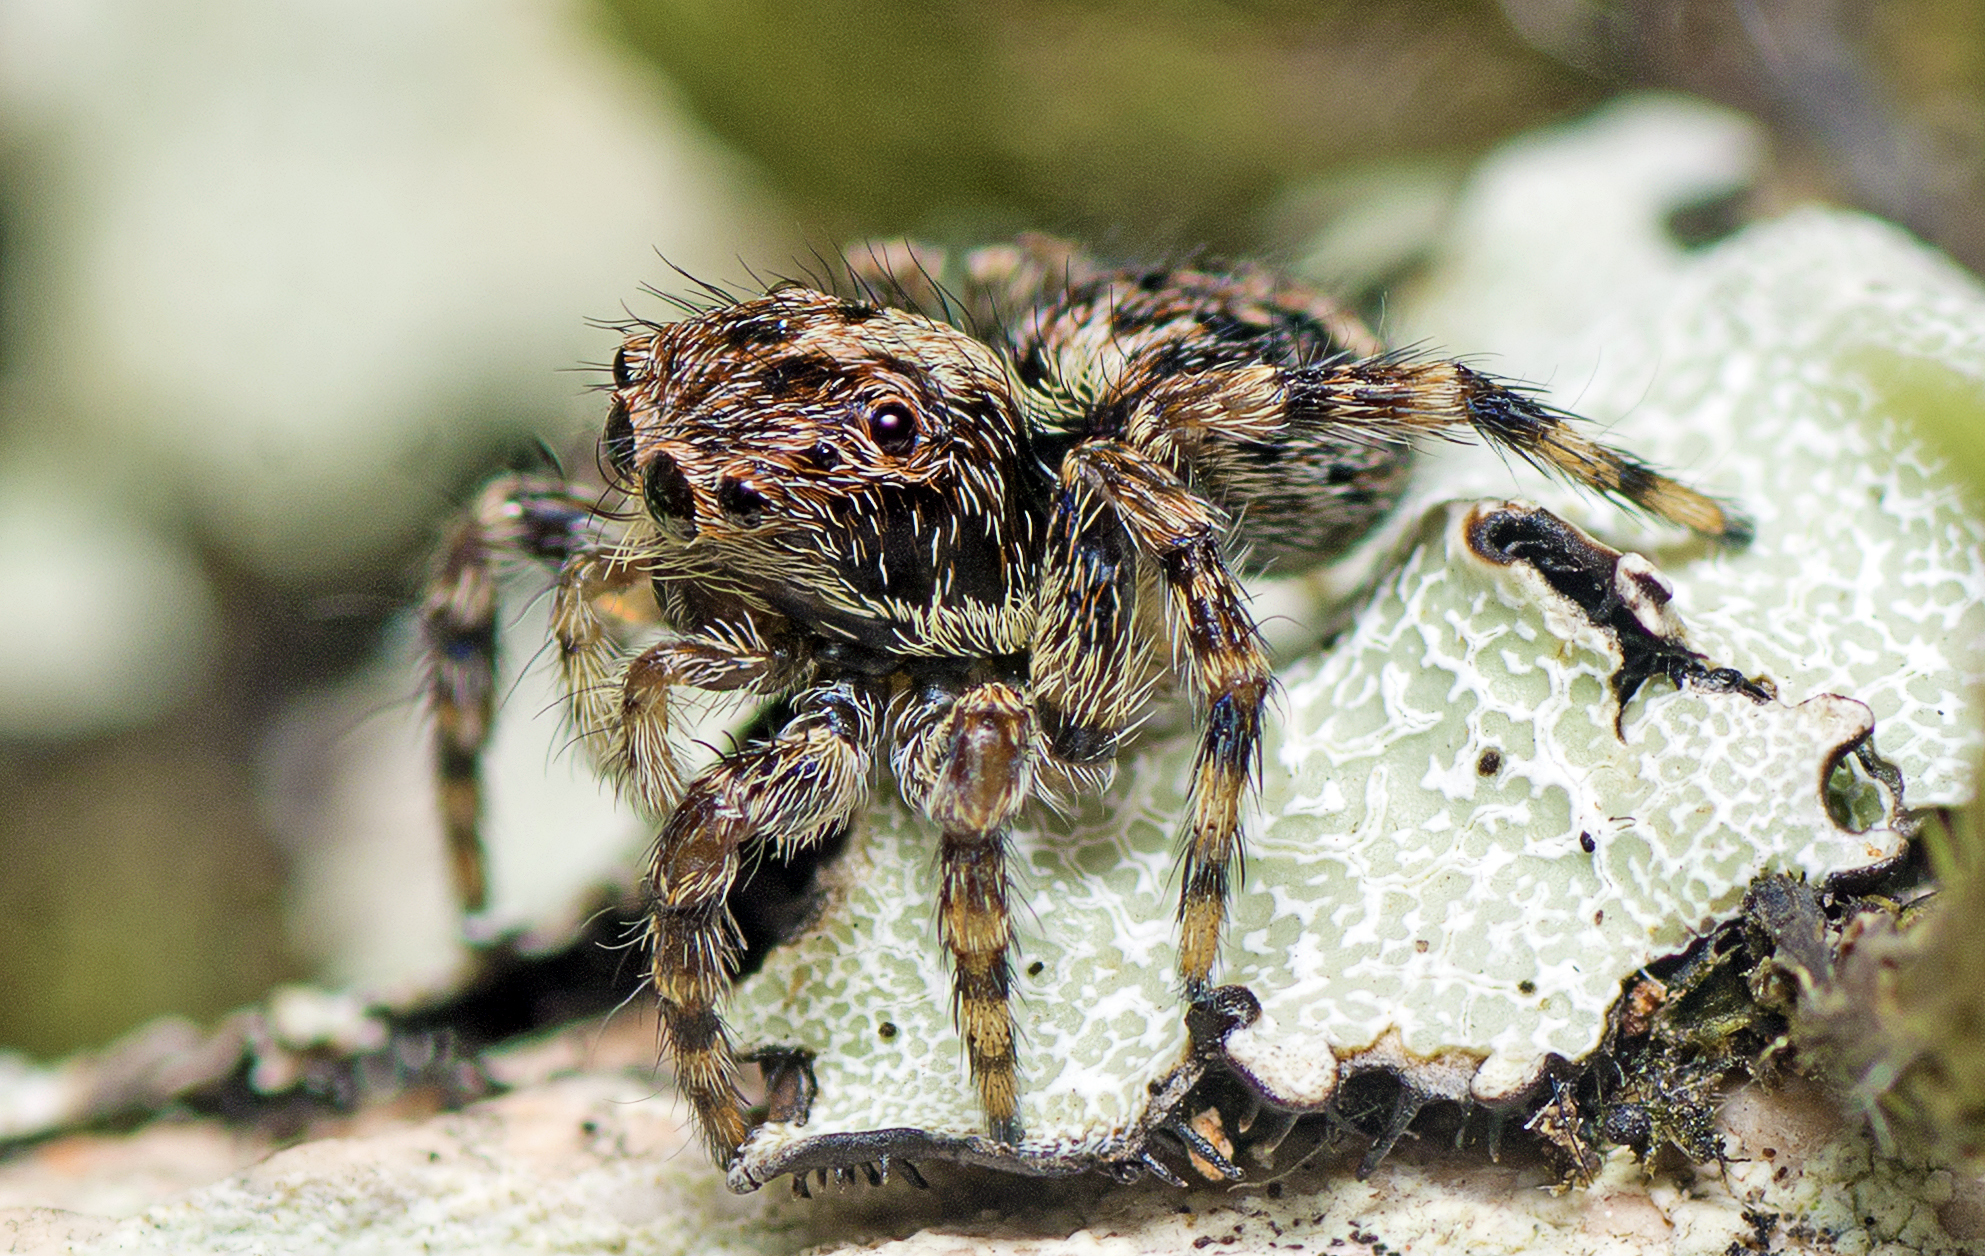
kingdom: Animalia
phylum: Arthropoda
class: Arachnida
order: Araneae
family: Salticidae
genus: Maratus
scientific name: Maratus expolitus
